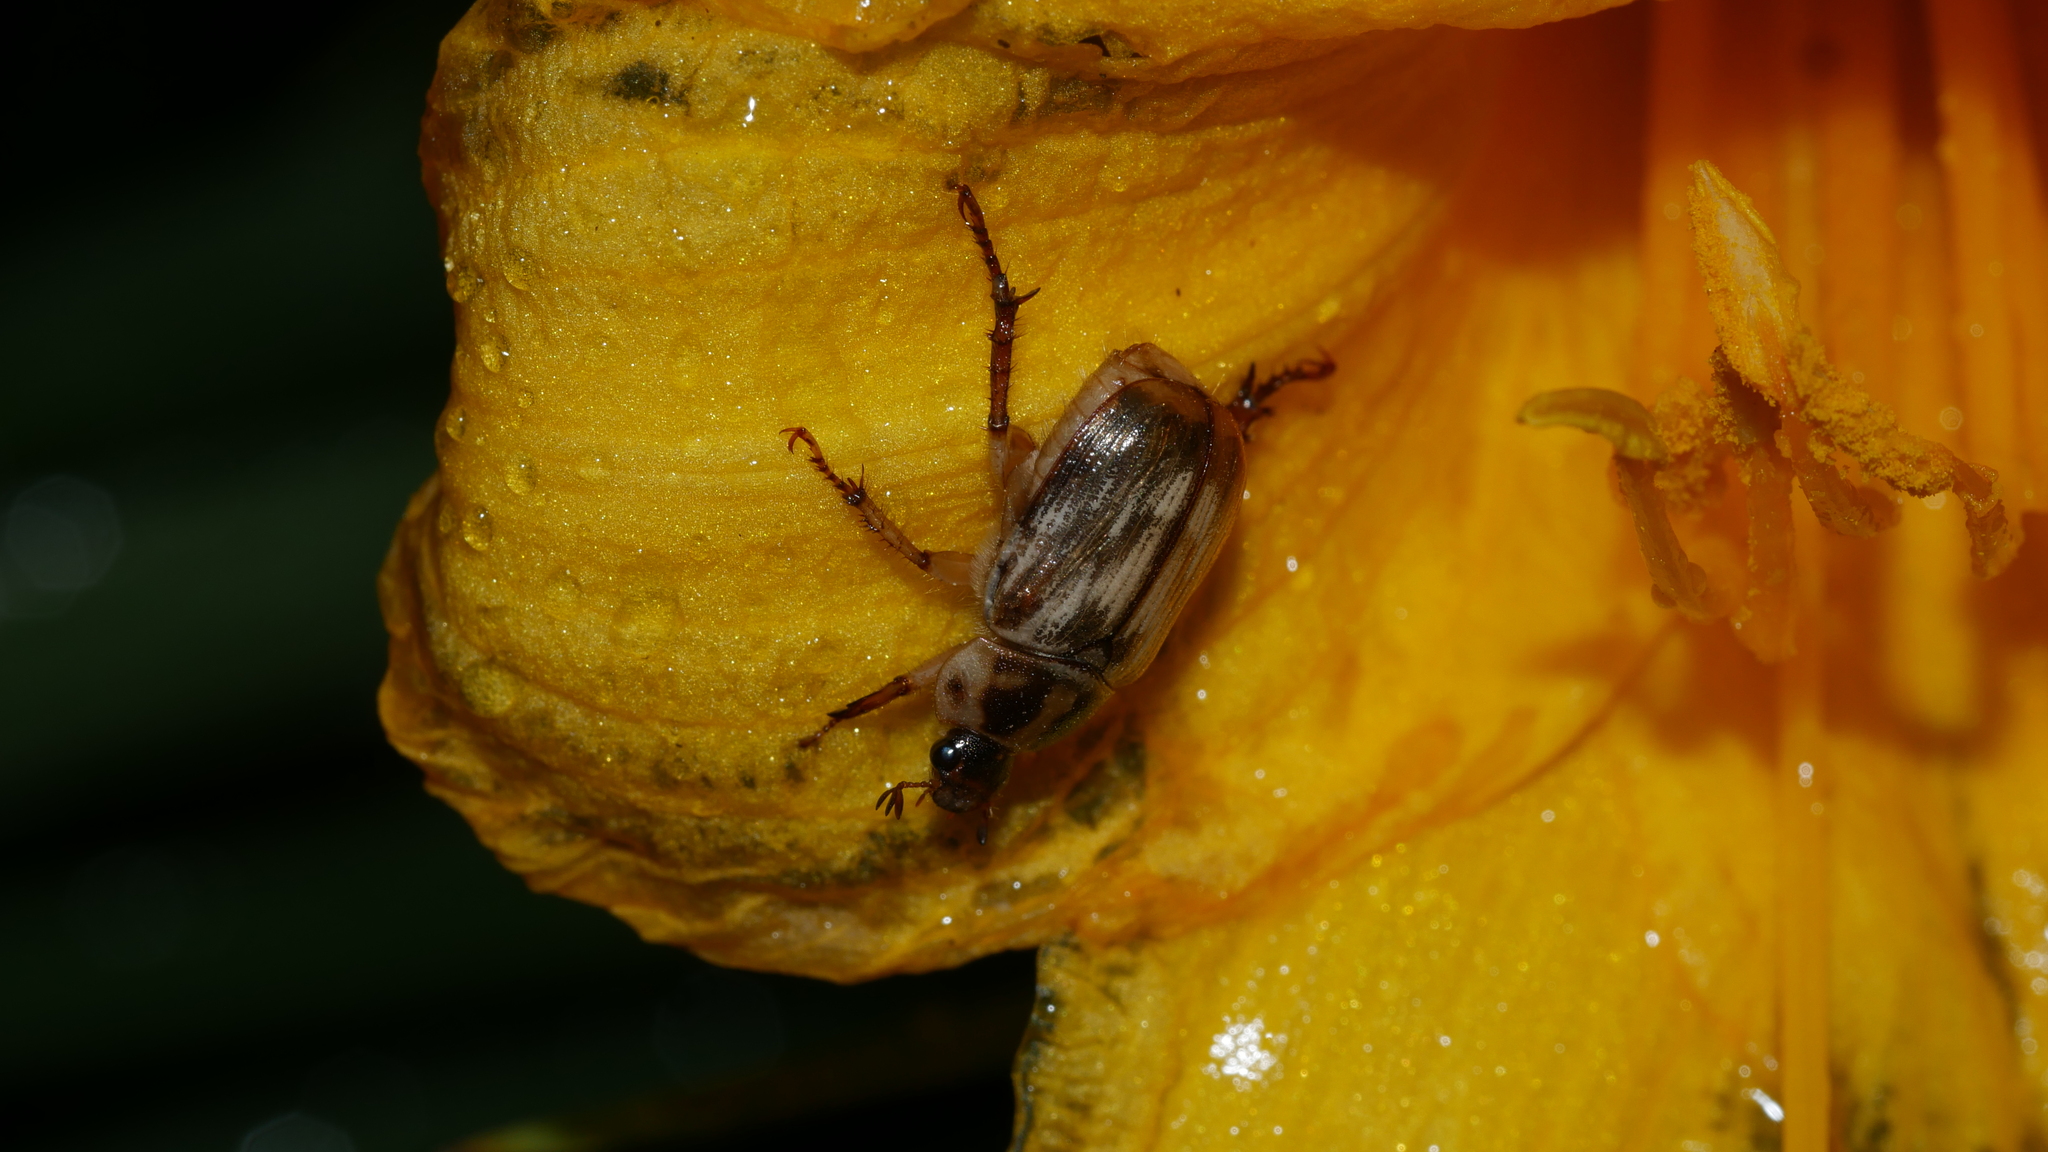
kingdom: Animalia
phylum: Arthropoda
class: Insecta
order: Coleoptera
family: Scarabaeidae
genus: Exomala
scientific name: Exomala orientalis
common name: Oriental beetle
